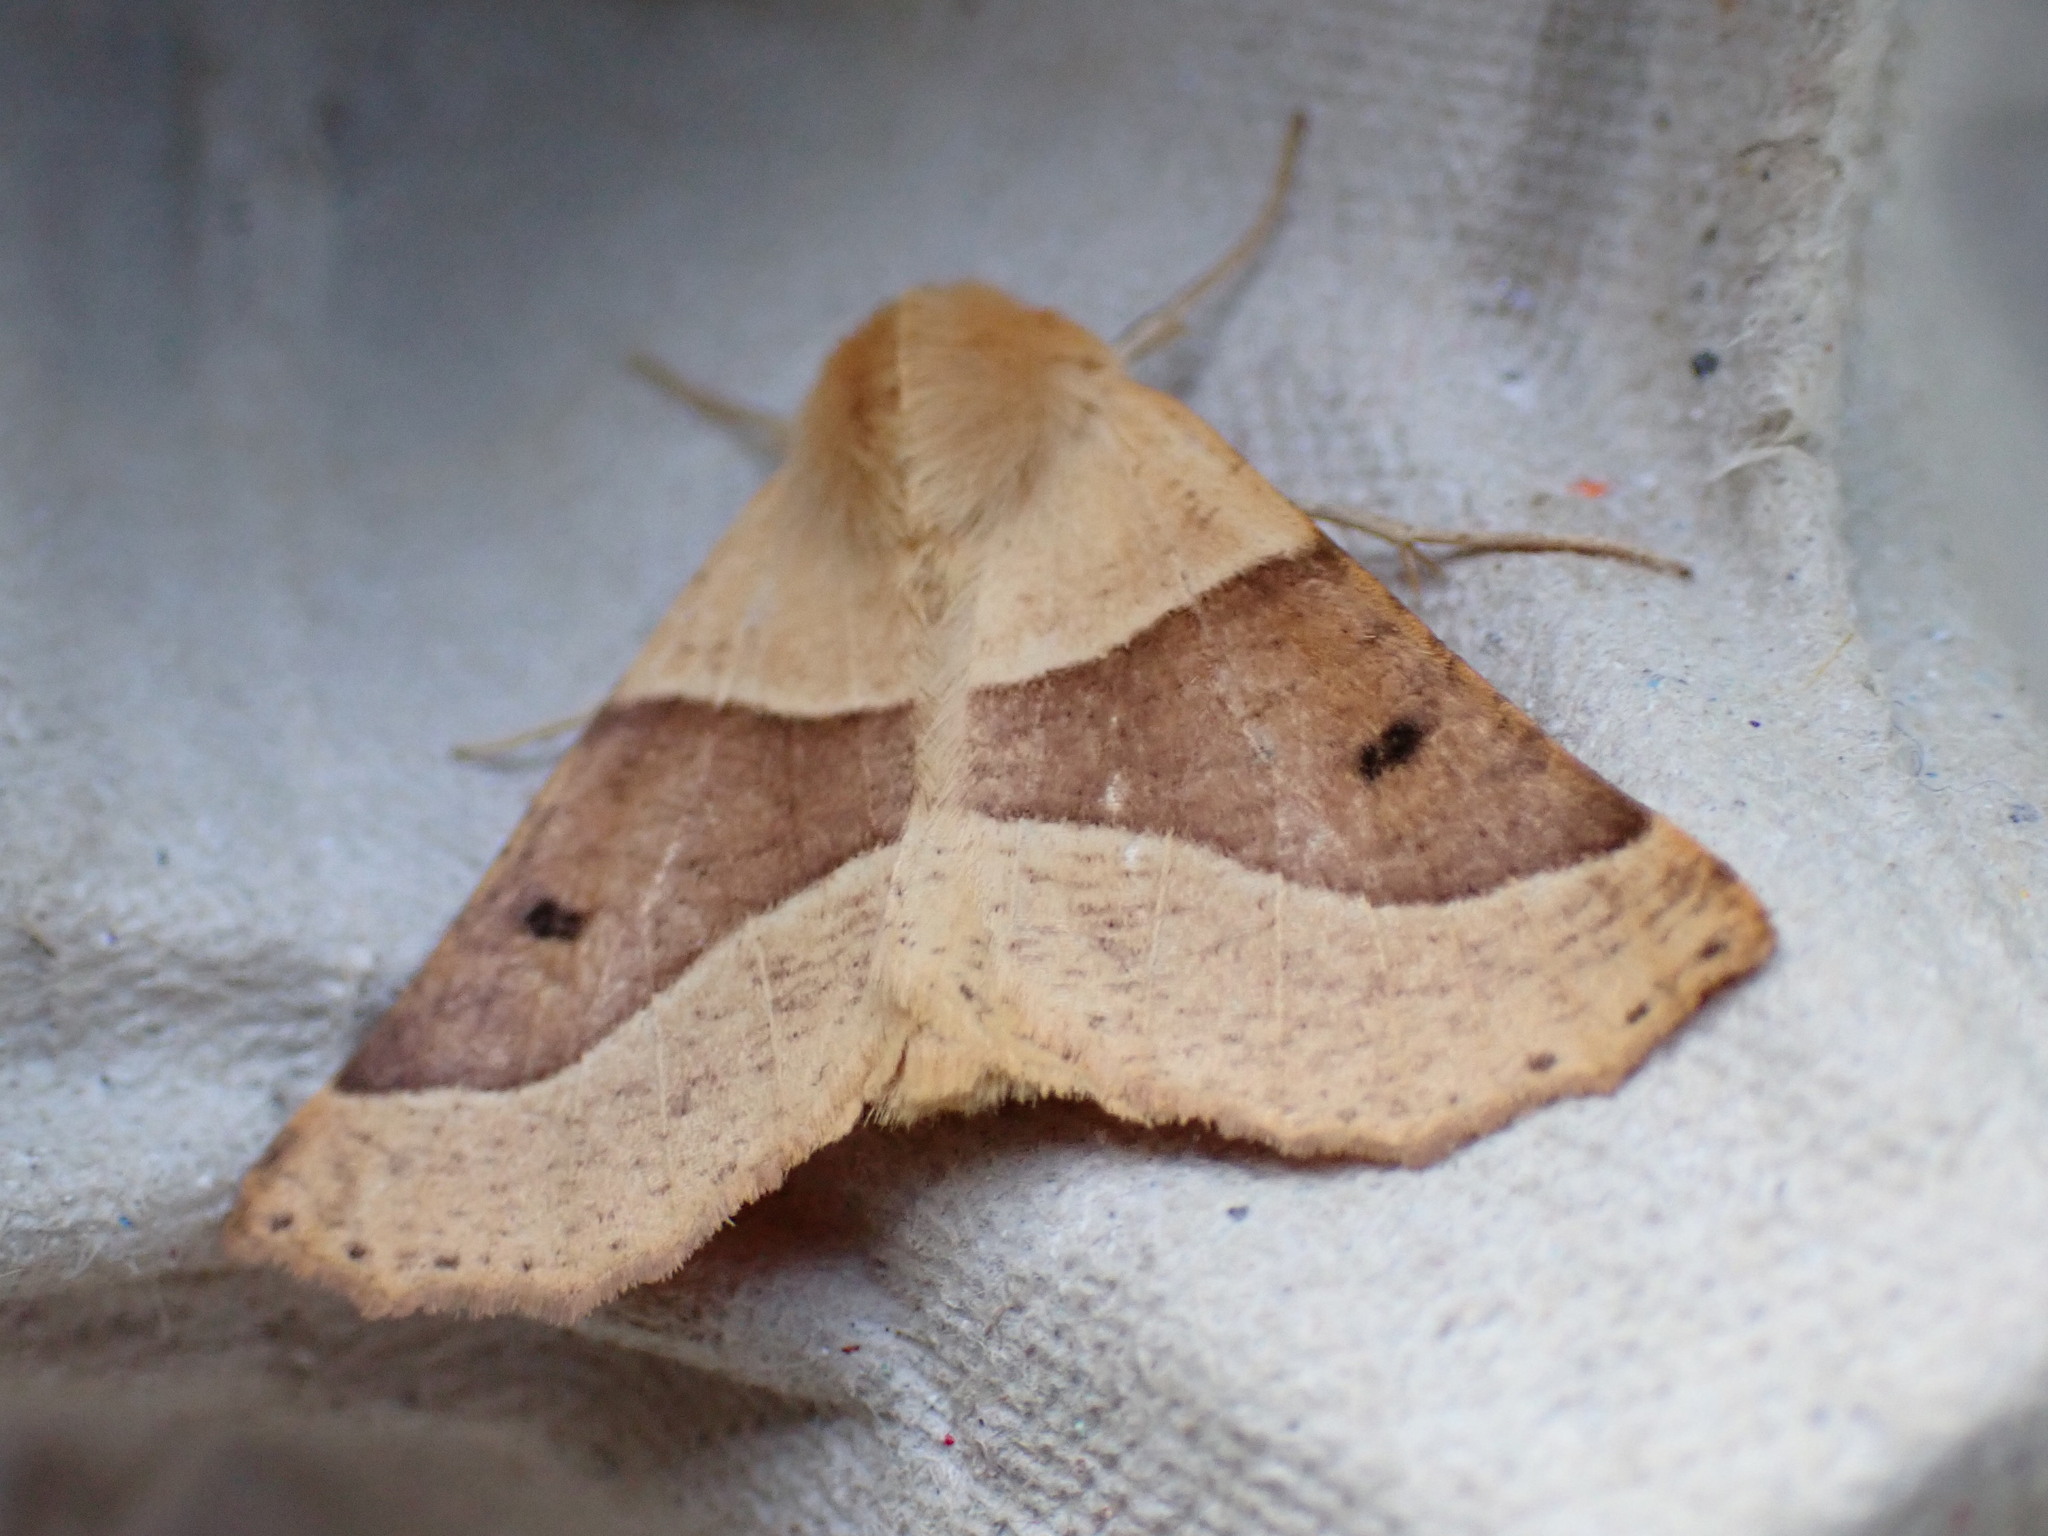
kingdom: Animalia
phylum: Arthropoda
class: Insecta
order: Lepidoptera
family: Geometridae
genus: Crocallis
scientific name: Crocallis elinguaria
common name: Scalloped oak
